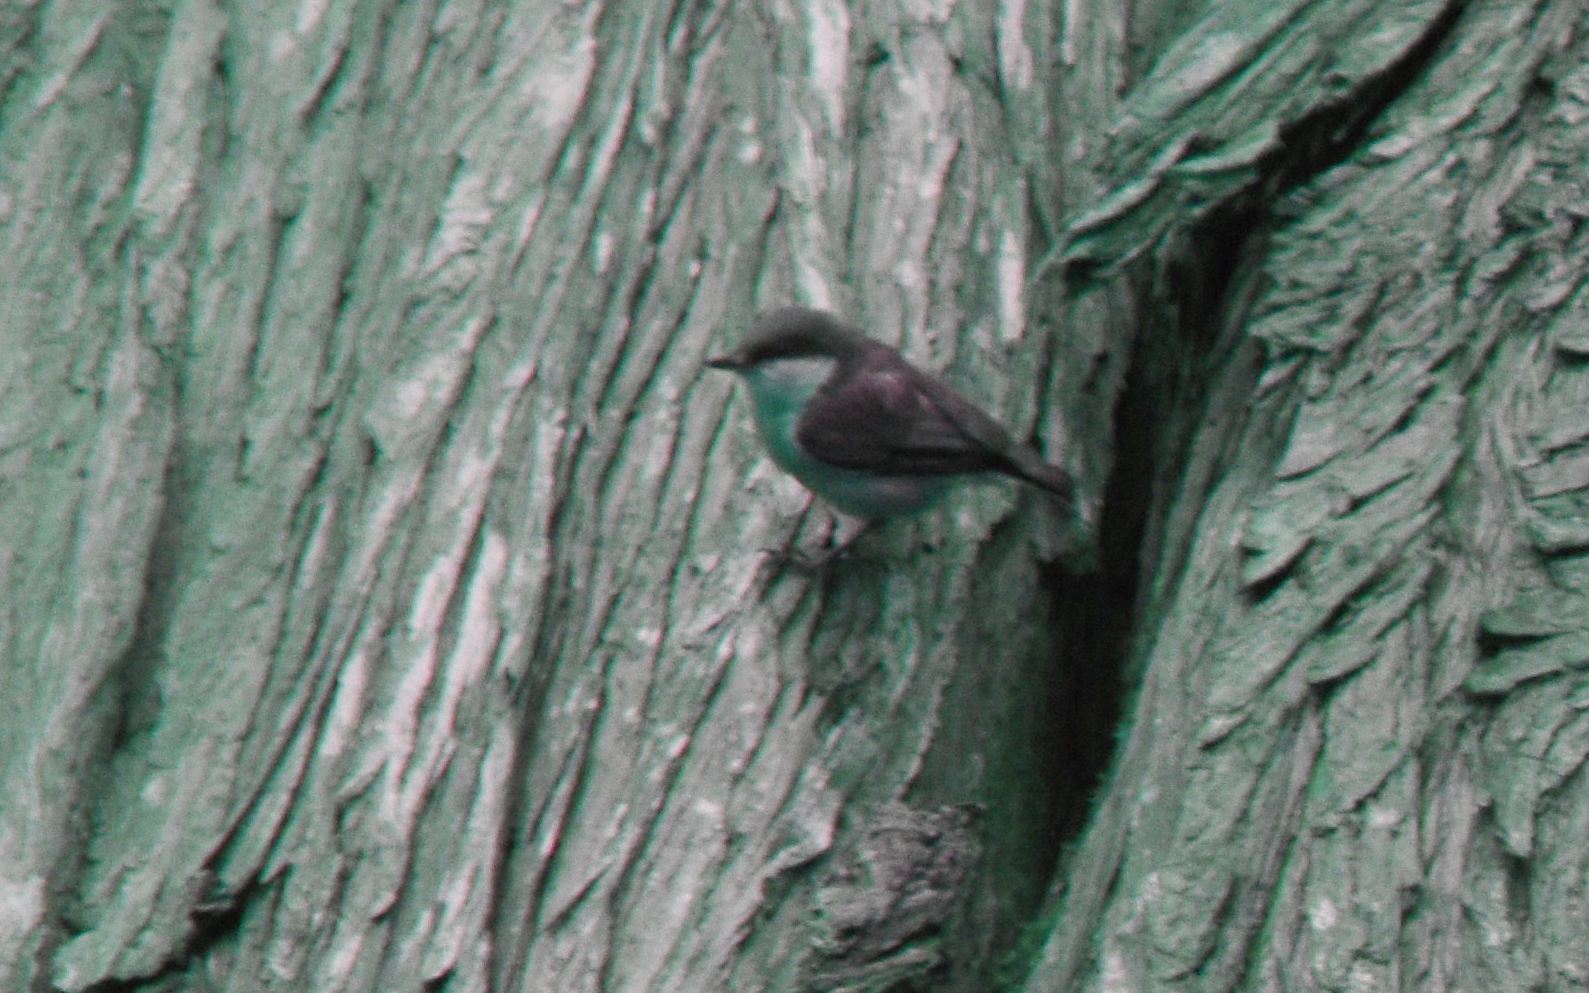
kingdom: Animalia
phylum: Chordata
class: Aves
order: Passeriformes
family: Sittidae
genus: Sitta
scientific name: Sitta pygmaea
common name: Pygmy nuthatch
